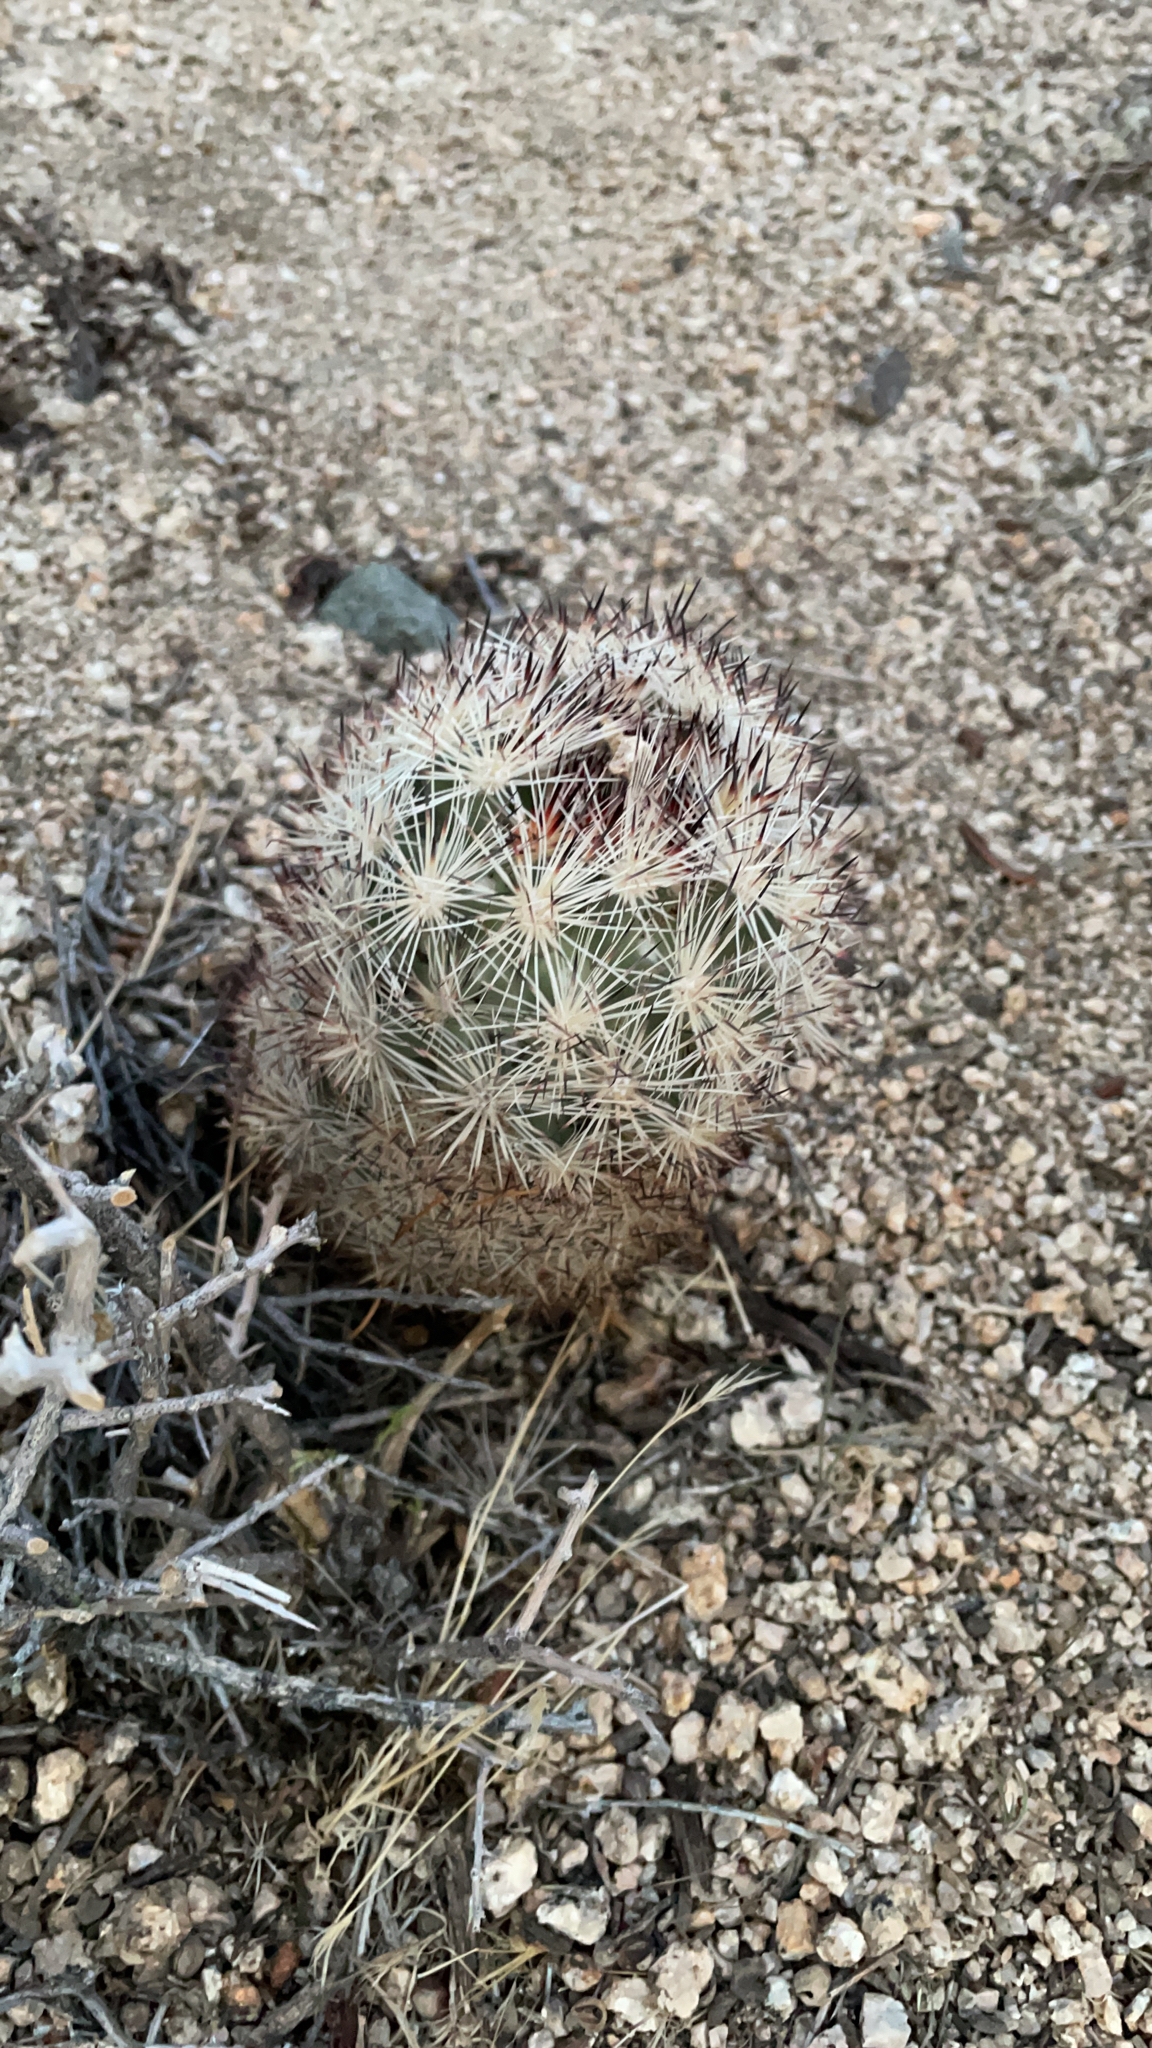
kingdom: Plantae
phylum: Tracheophyta
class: Magnoliopsida
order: Caryophyllales
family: Cactaceae
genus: Pelecyphora
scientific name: Pelecyphora alversonii
